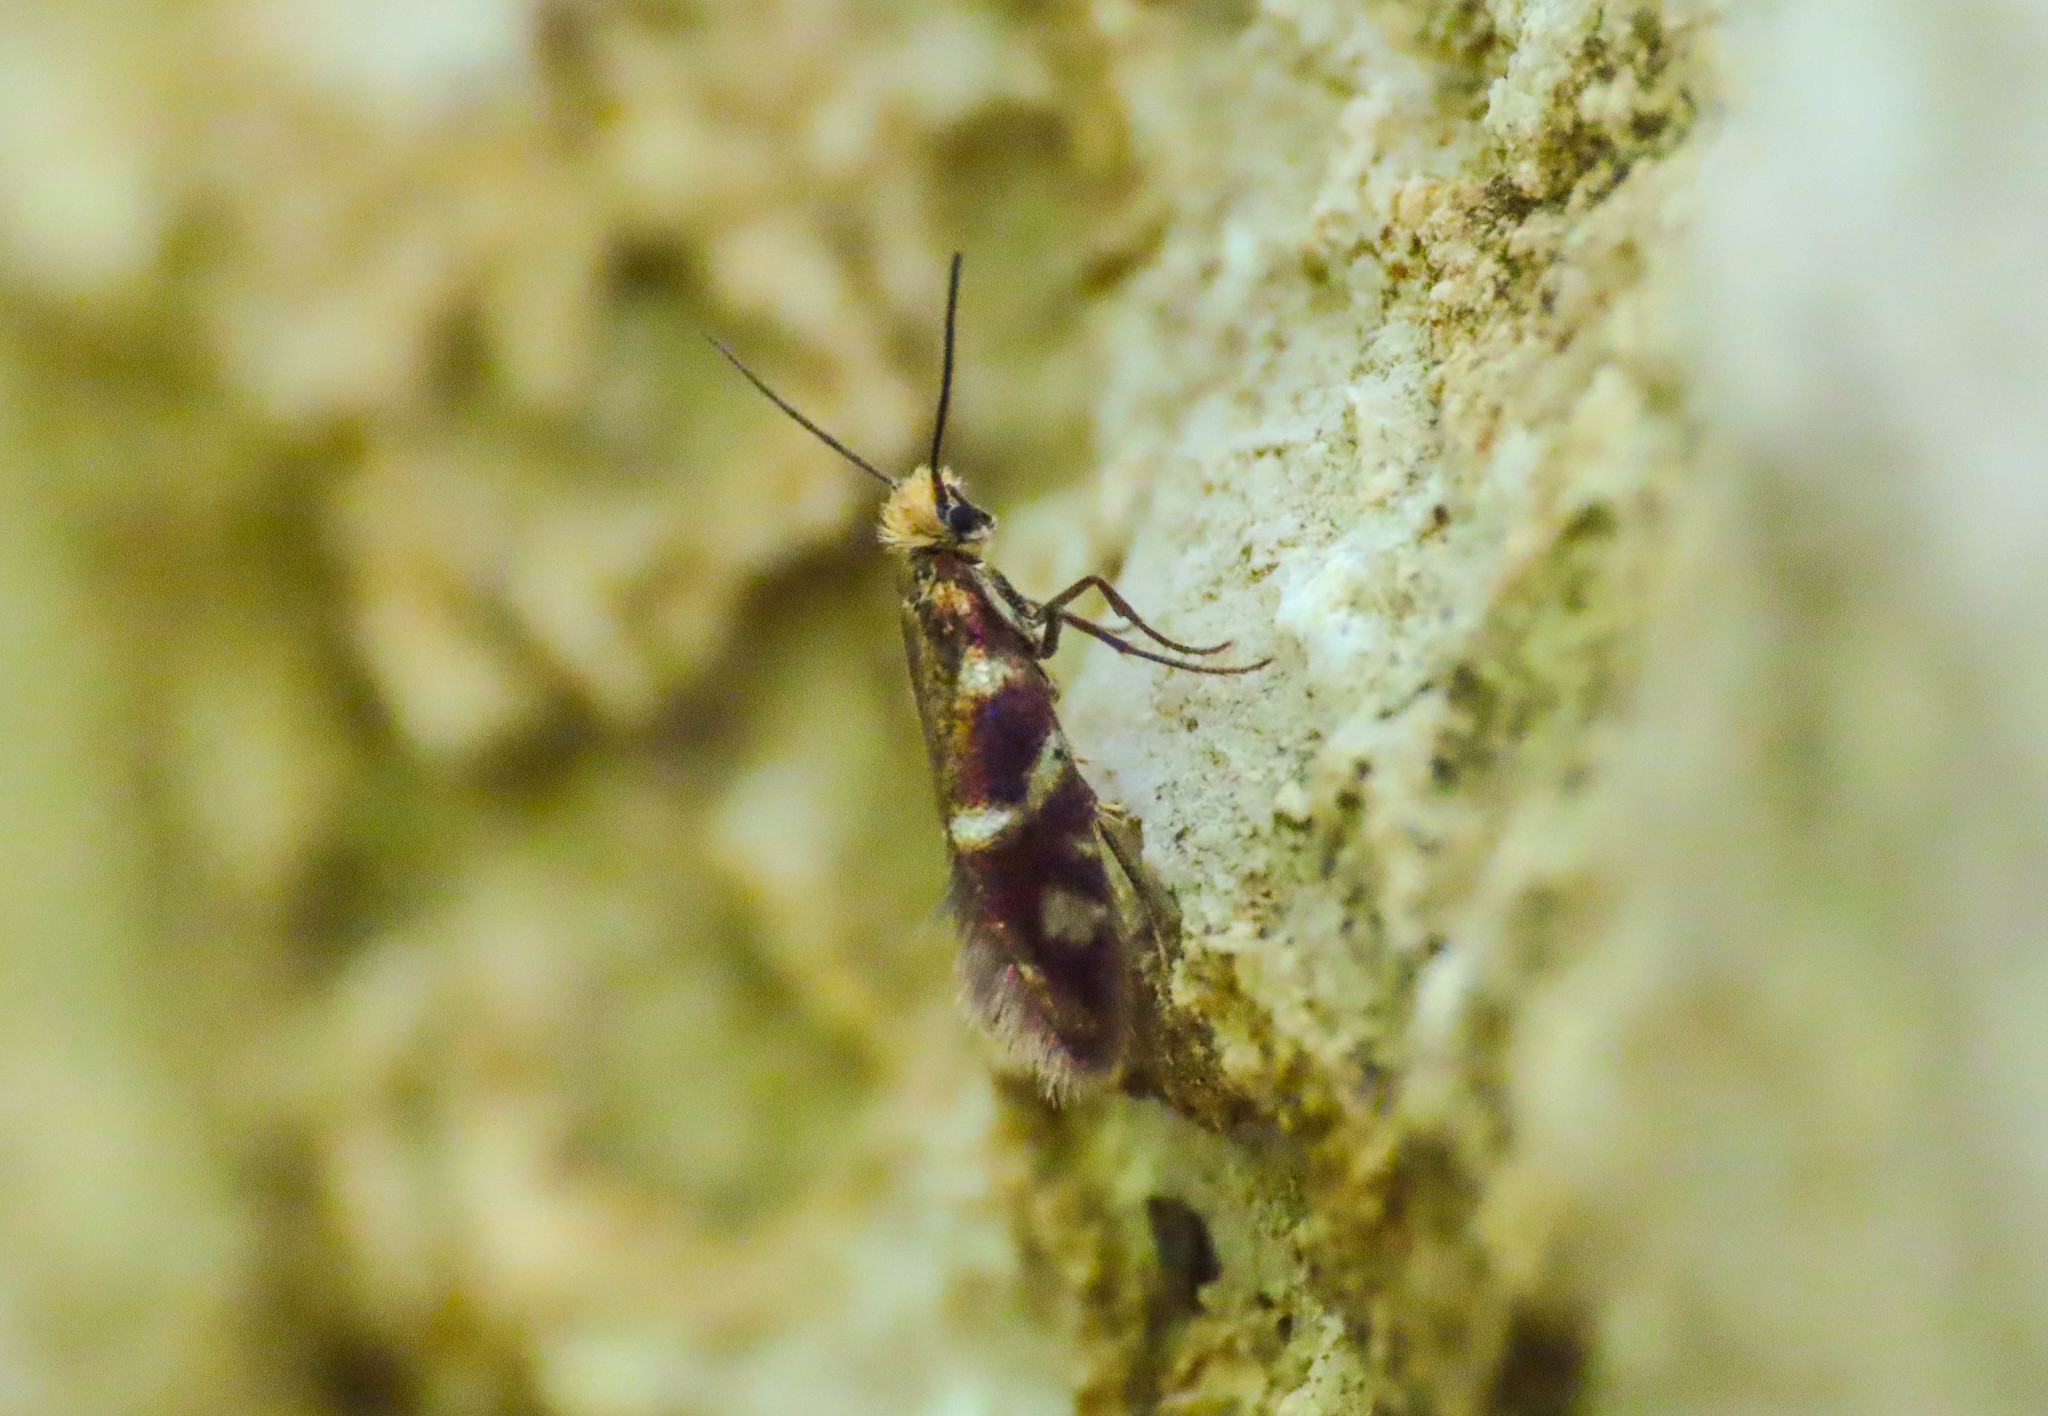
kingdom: Animalia
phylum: Arthropoda
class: Insecta
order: Lepidoptera
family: Micropterigidae
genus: Micropterix
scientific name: Micropterix vulturensis
